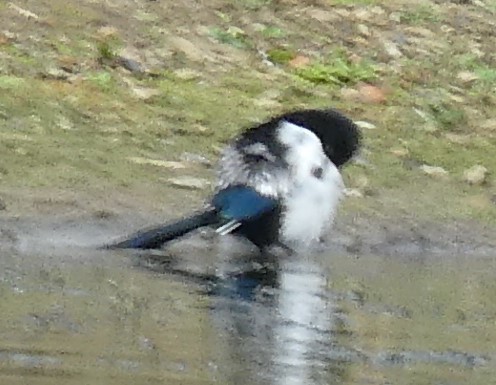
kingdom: Animalia
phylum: Chordata
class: Aves
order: Passeriformes
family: Corvidae
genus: Pica
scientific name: Pica pica
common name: Eurasian magpie
